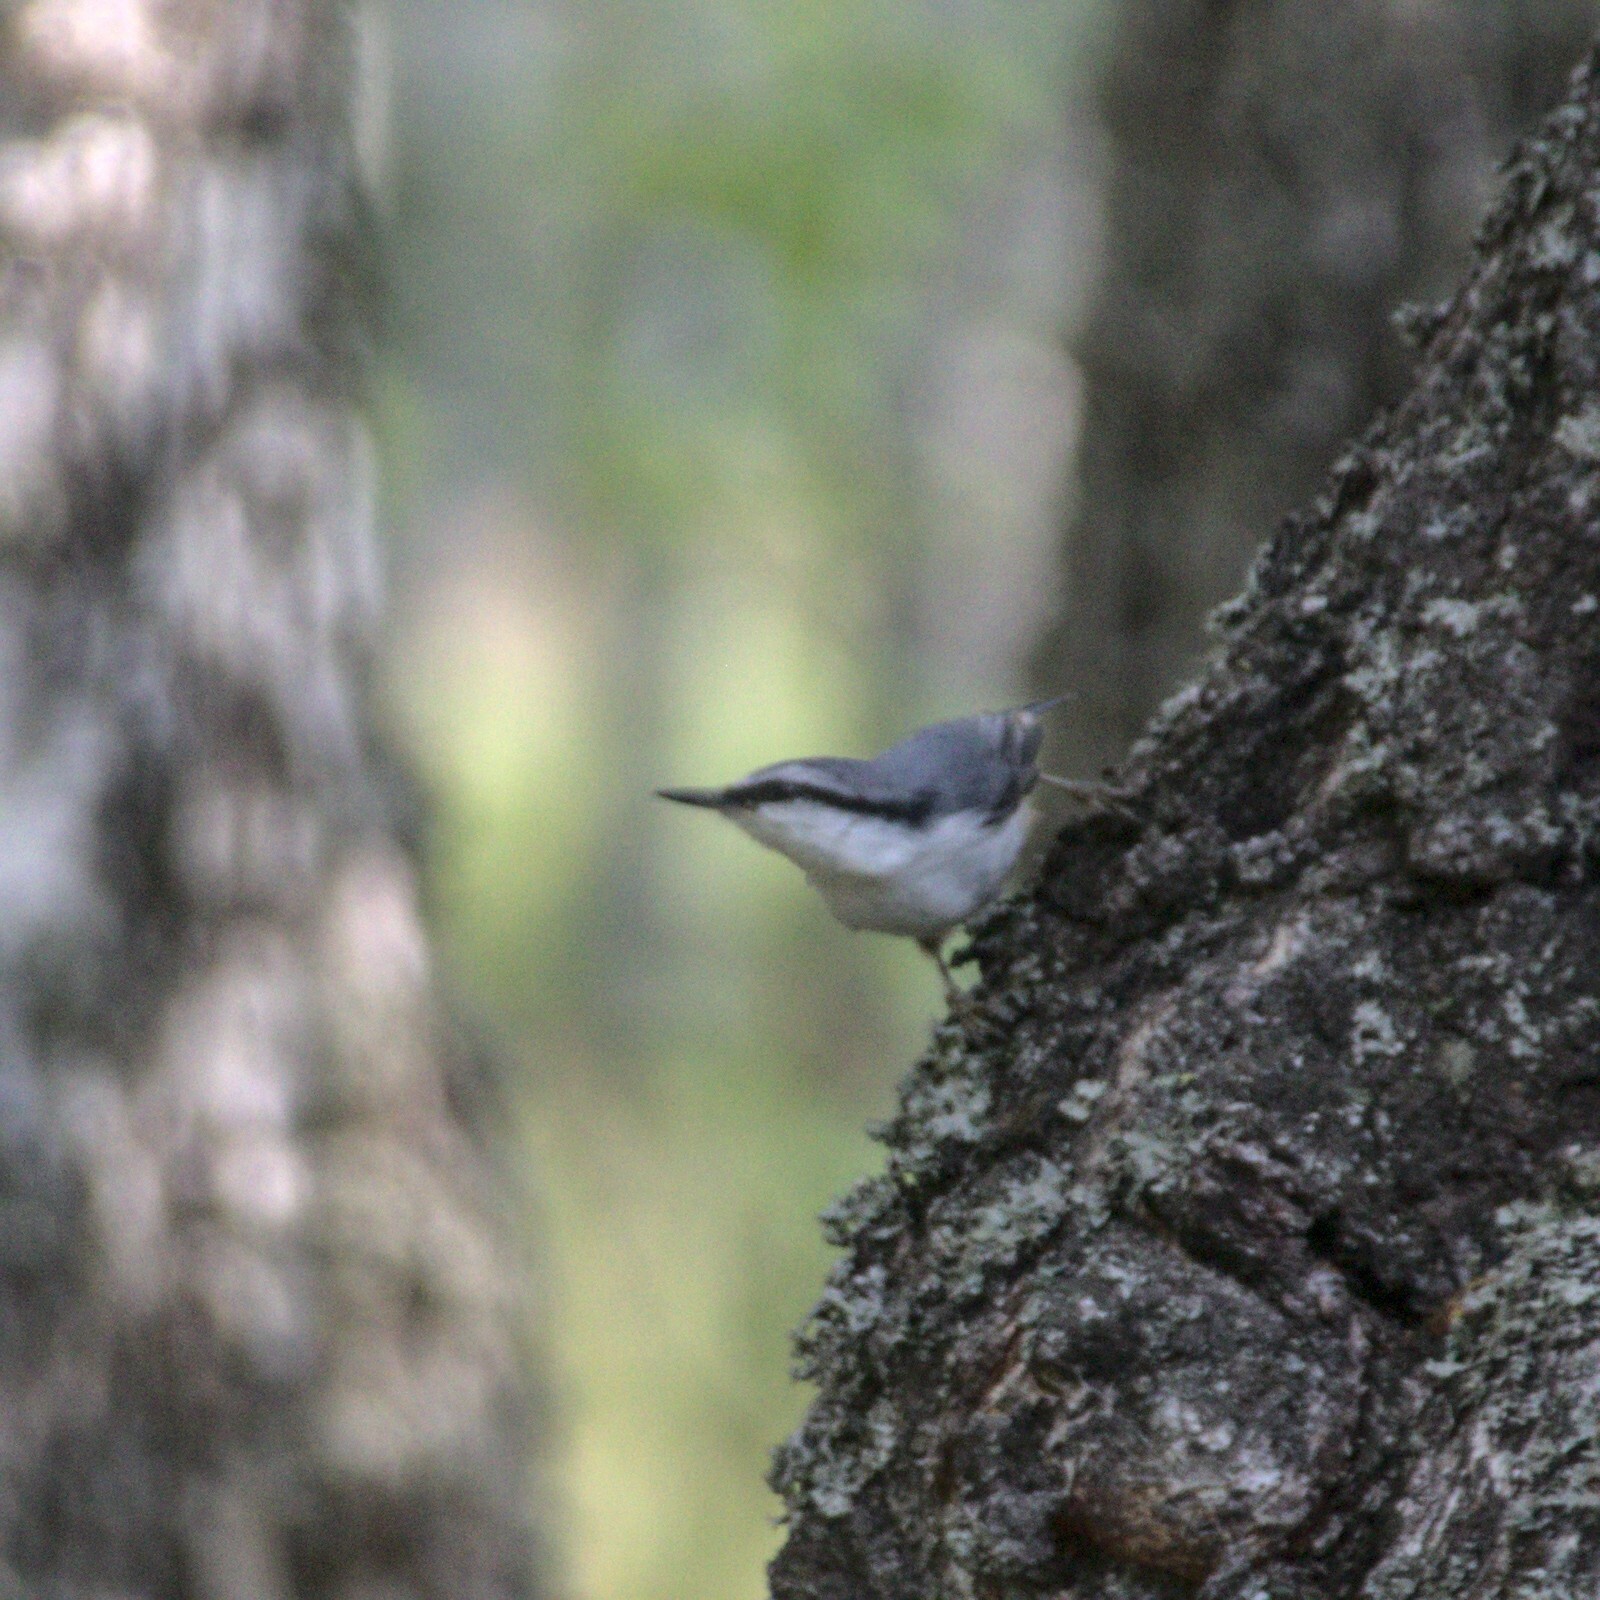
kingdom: Animalia
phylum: Chordata
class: Aves
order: Passeriformes
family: Sittidae
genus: Sitta
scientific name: Sitta europaea
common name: Eurasian nuthatch
